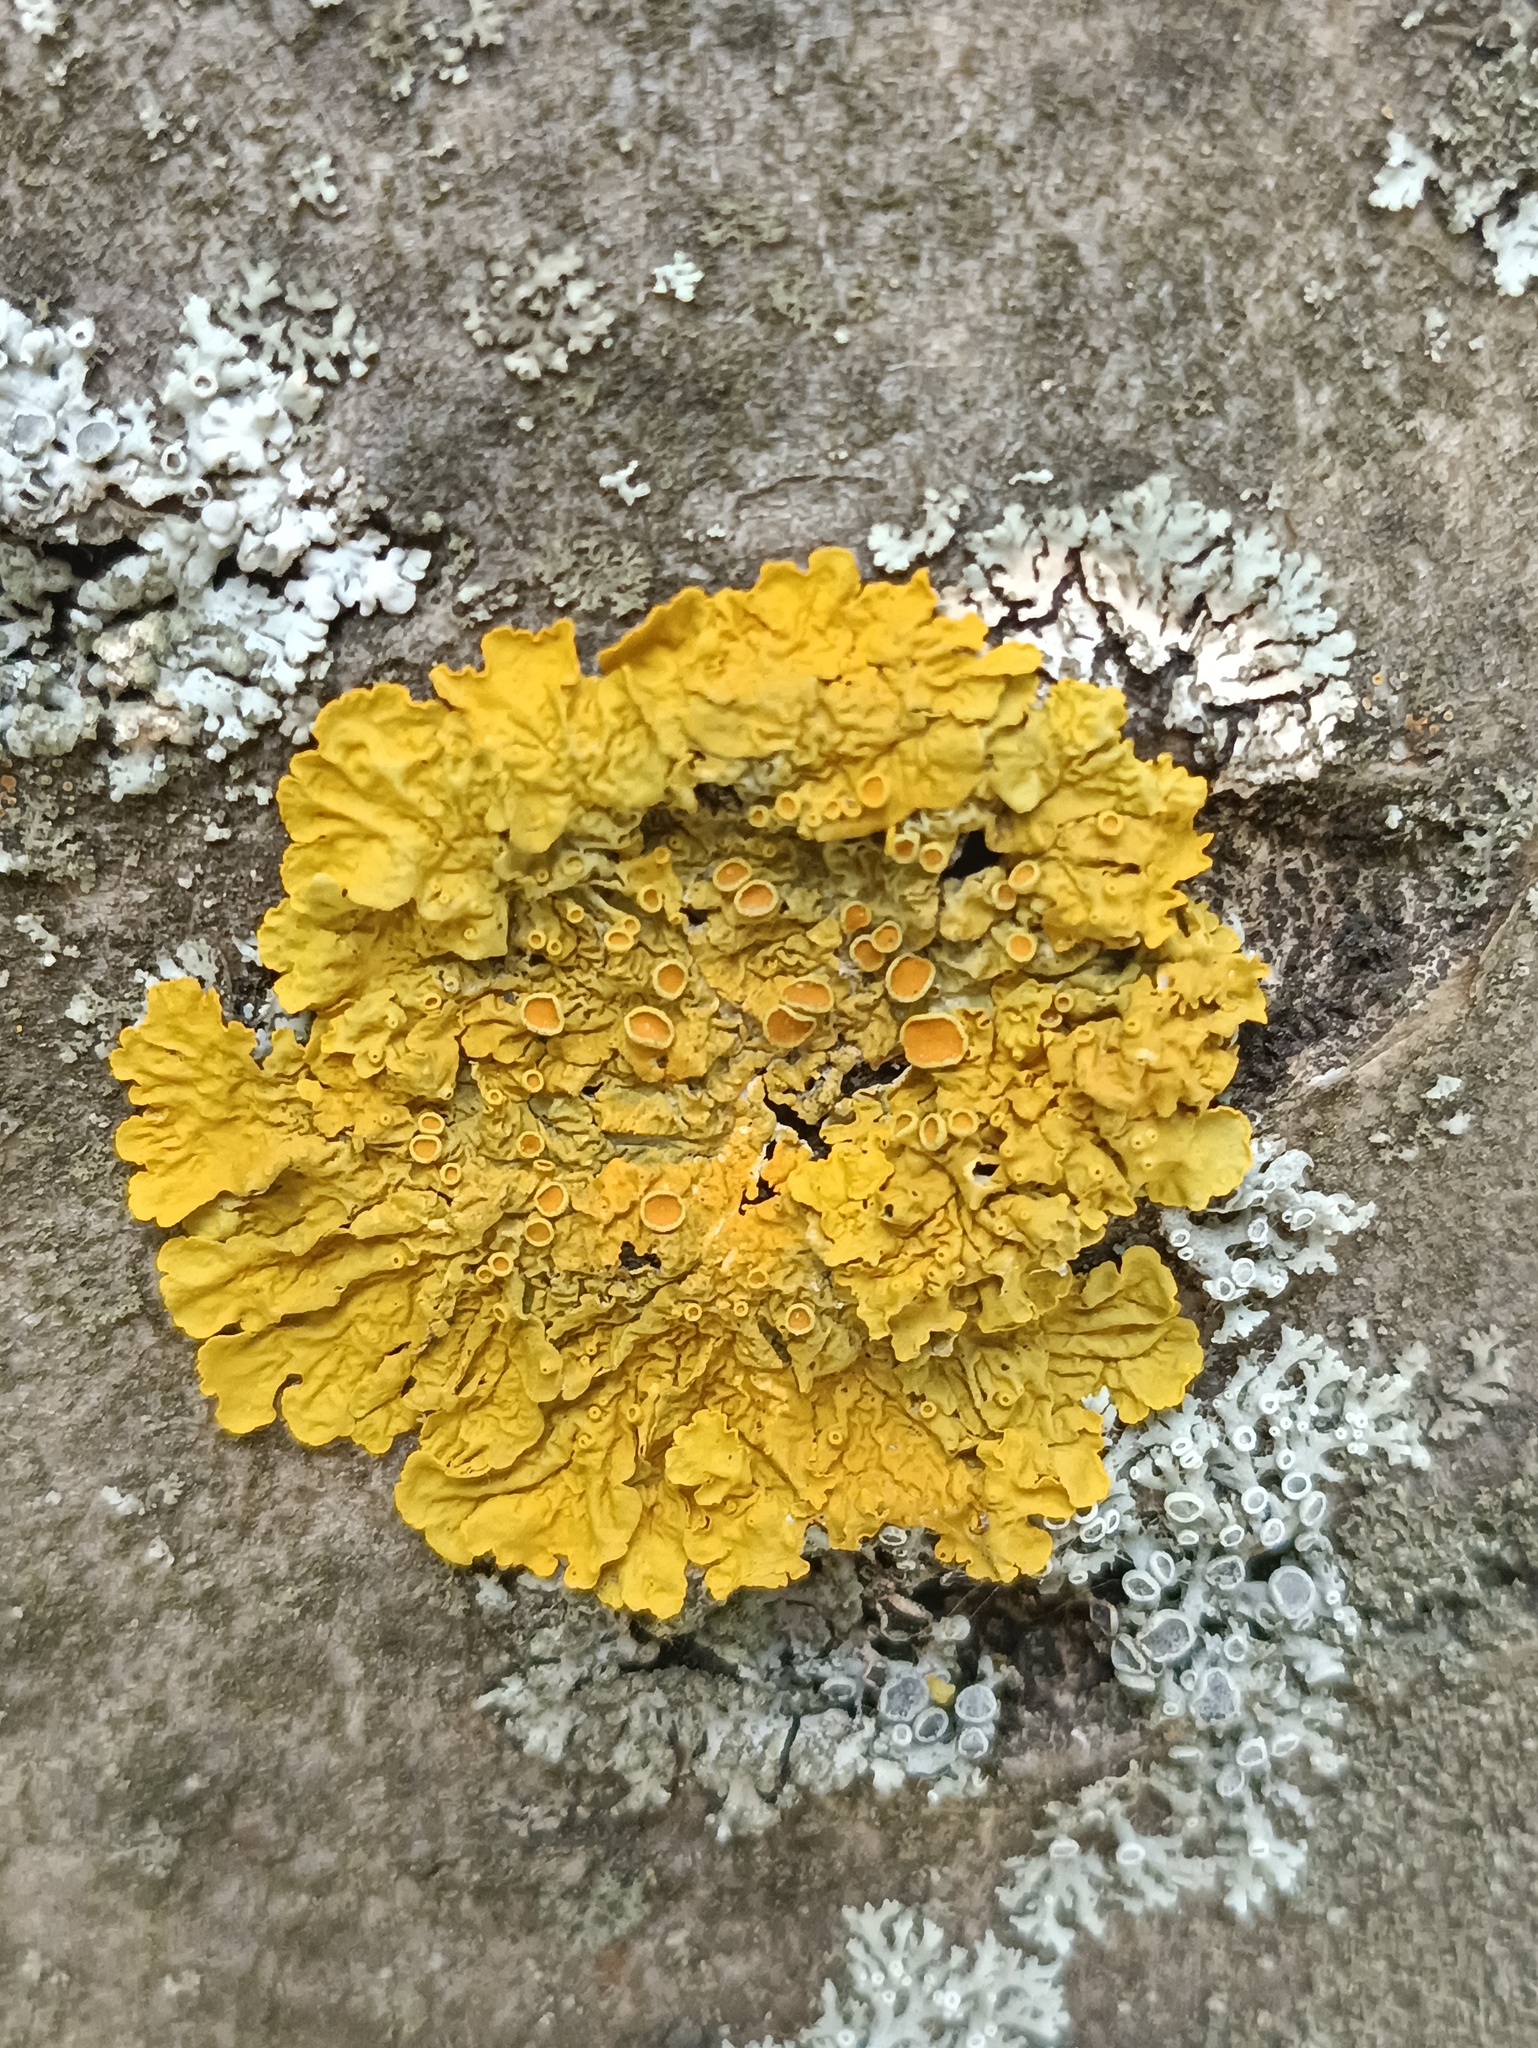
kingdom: Fungi
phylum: Ascomycota
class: Lecanoromycetes
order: Teloschistales
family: Teloschistaceae
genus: Xanthoria
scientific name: Xanthoria parietina
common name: Common orange lichen
